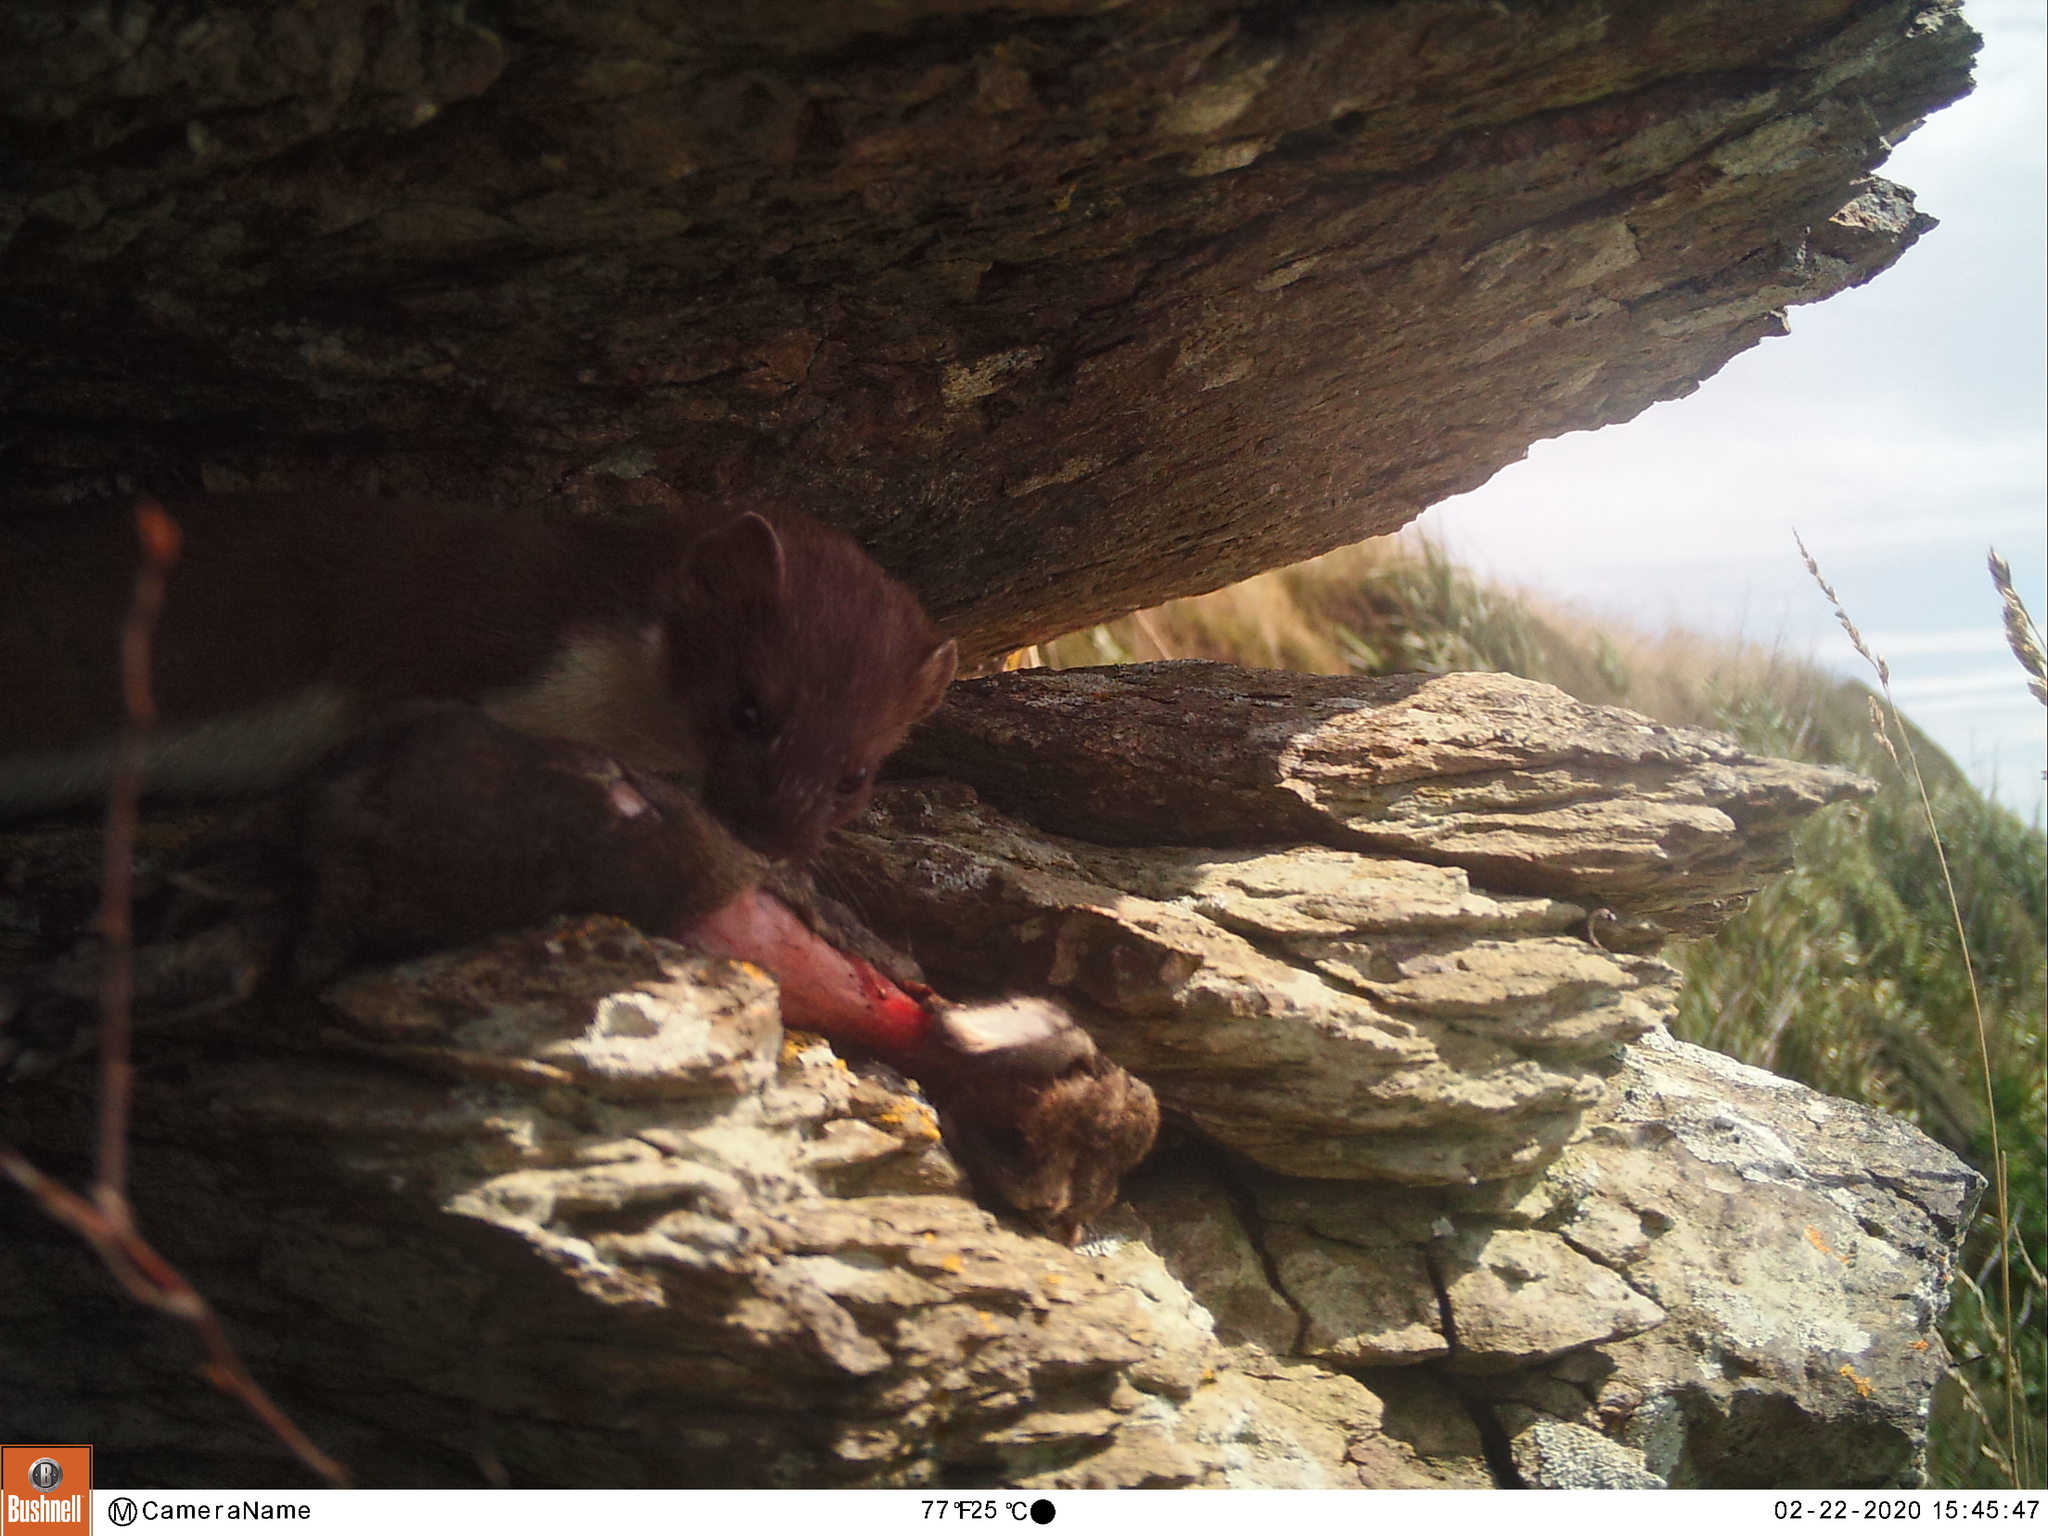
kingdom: Animalia
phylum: Chordata
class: Mammalia
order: Carnivora
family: Mustelidae
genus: Mustela
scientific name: Mustela erminea
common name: Stoat
